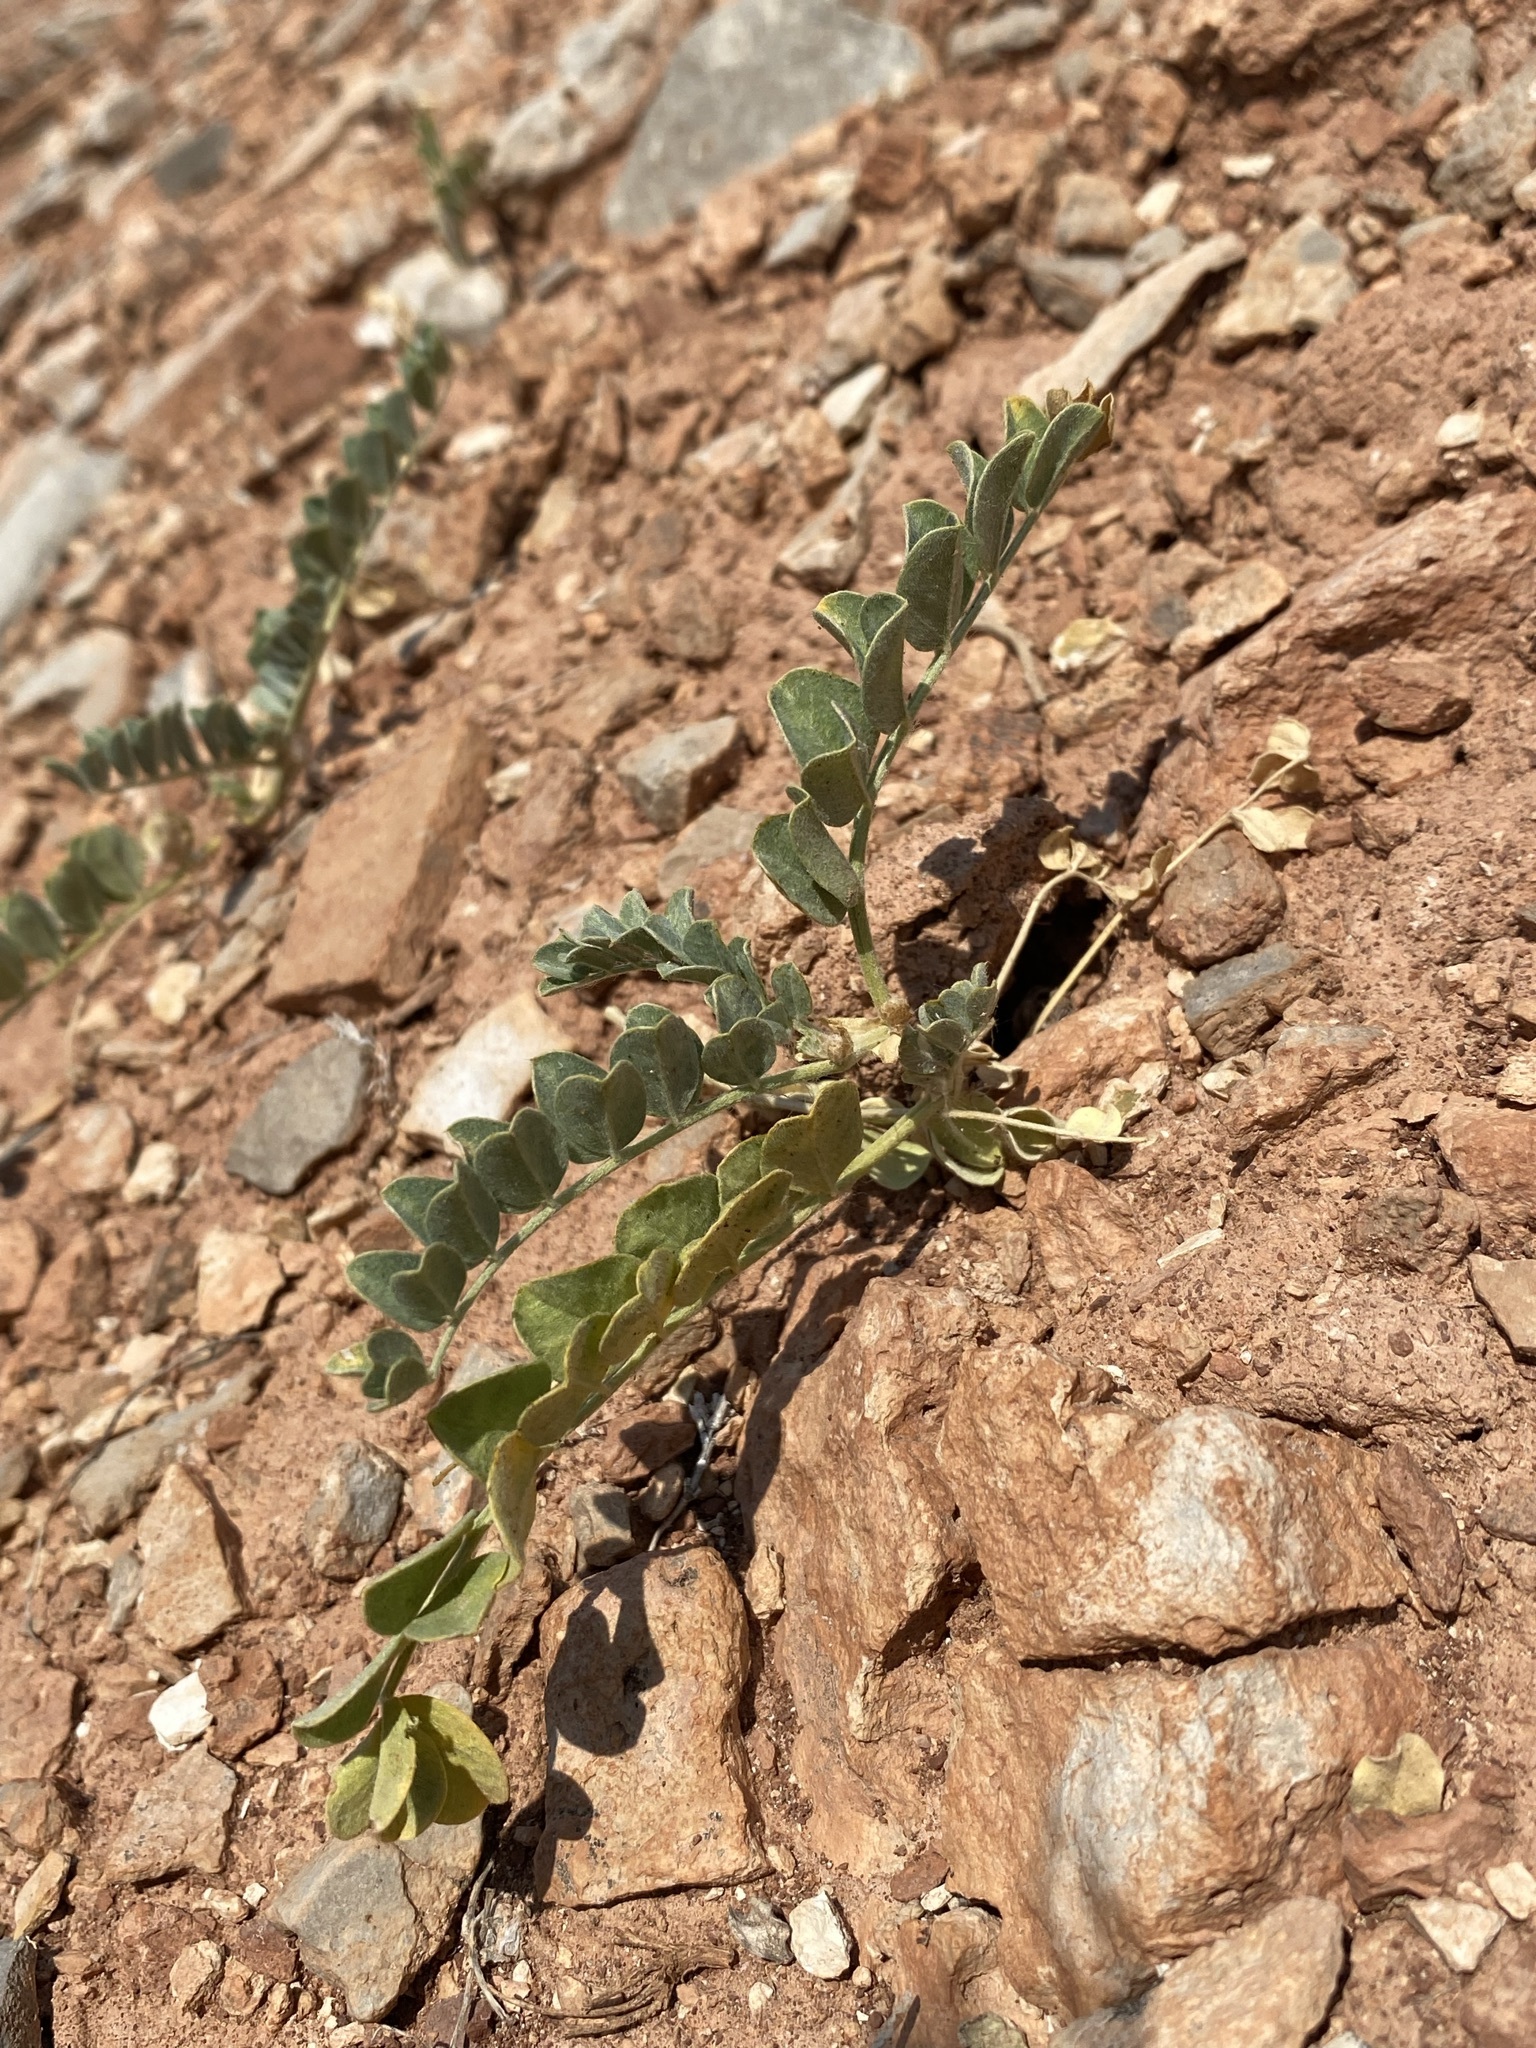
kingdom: Plantae
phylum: Tracheophyta
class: Magnoliopsida
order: Fabales
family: Fabaceae
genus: Astragalus
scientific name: Astragalus oreganus
